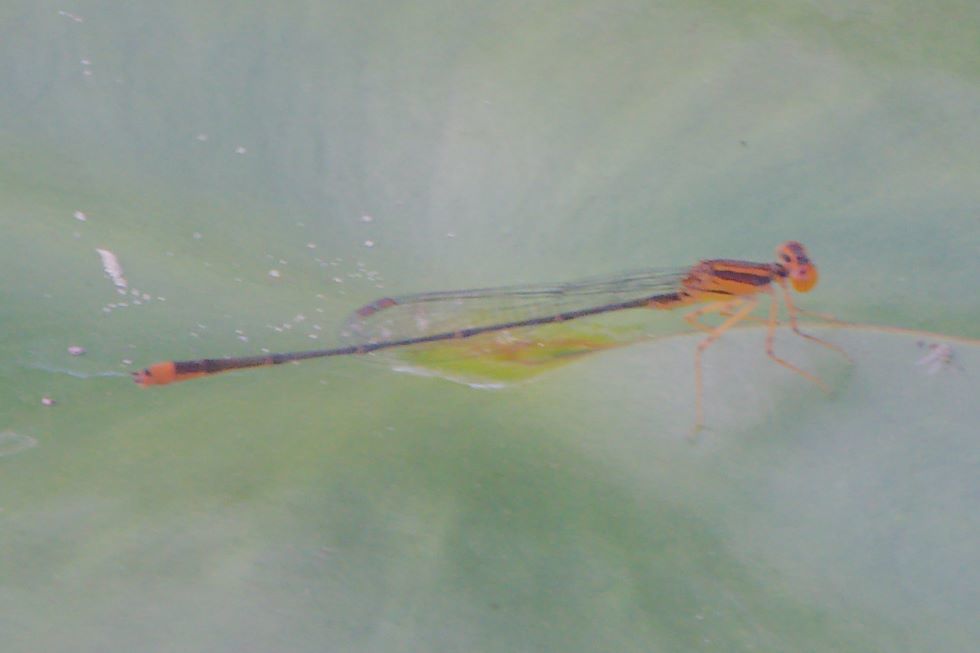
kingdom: Animalia
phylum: Arthropoda
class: Insecta
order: Odonata
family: Coenagrionidae
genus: Enallagma
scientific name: Enallagma pollutum
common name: Florida bluet
